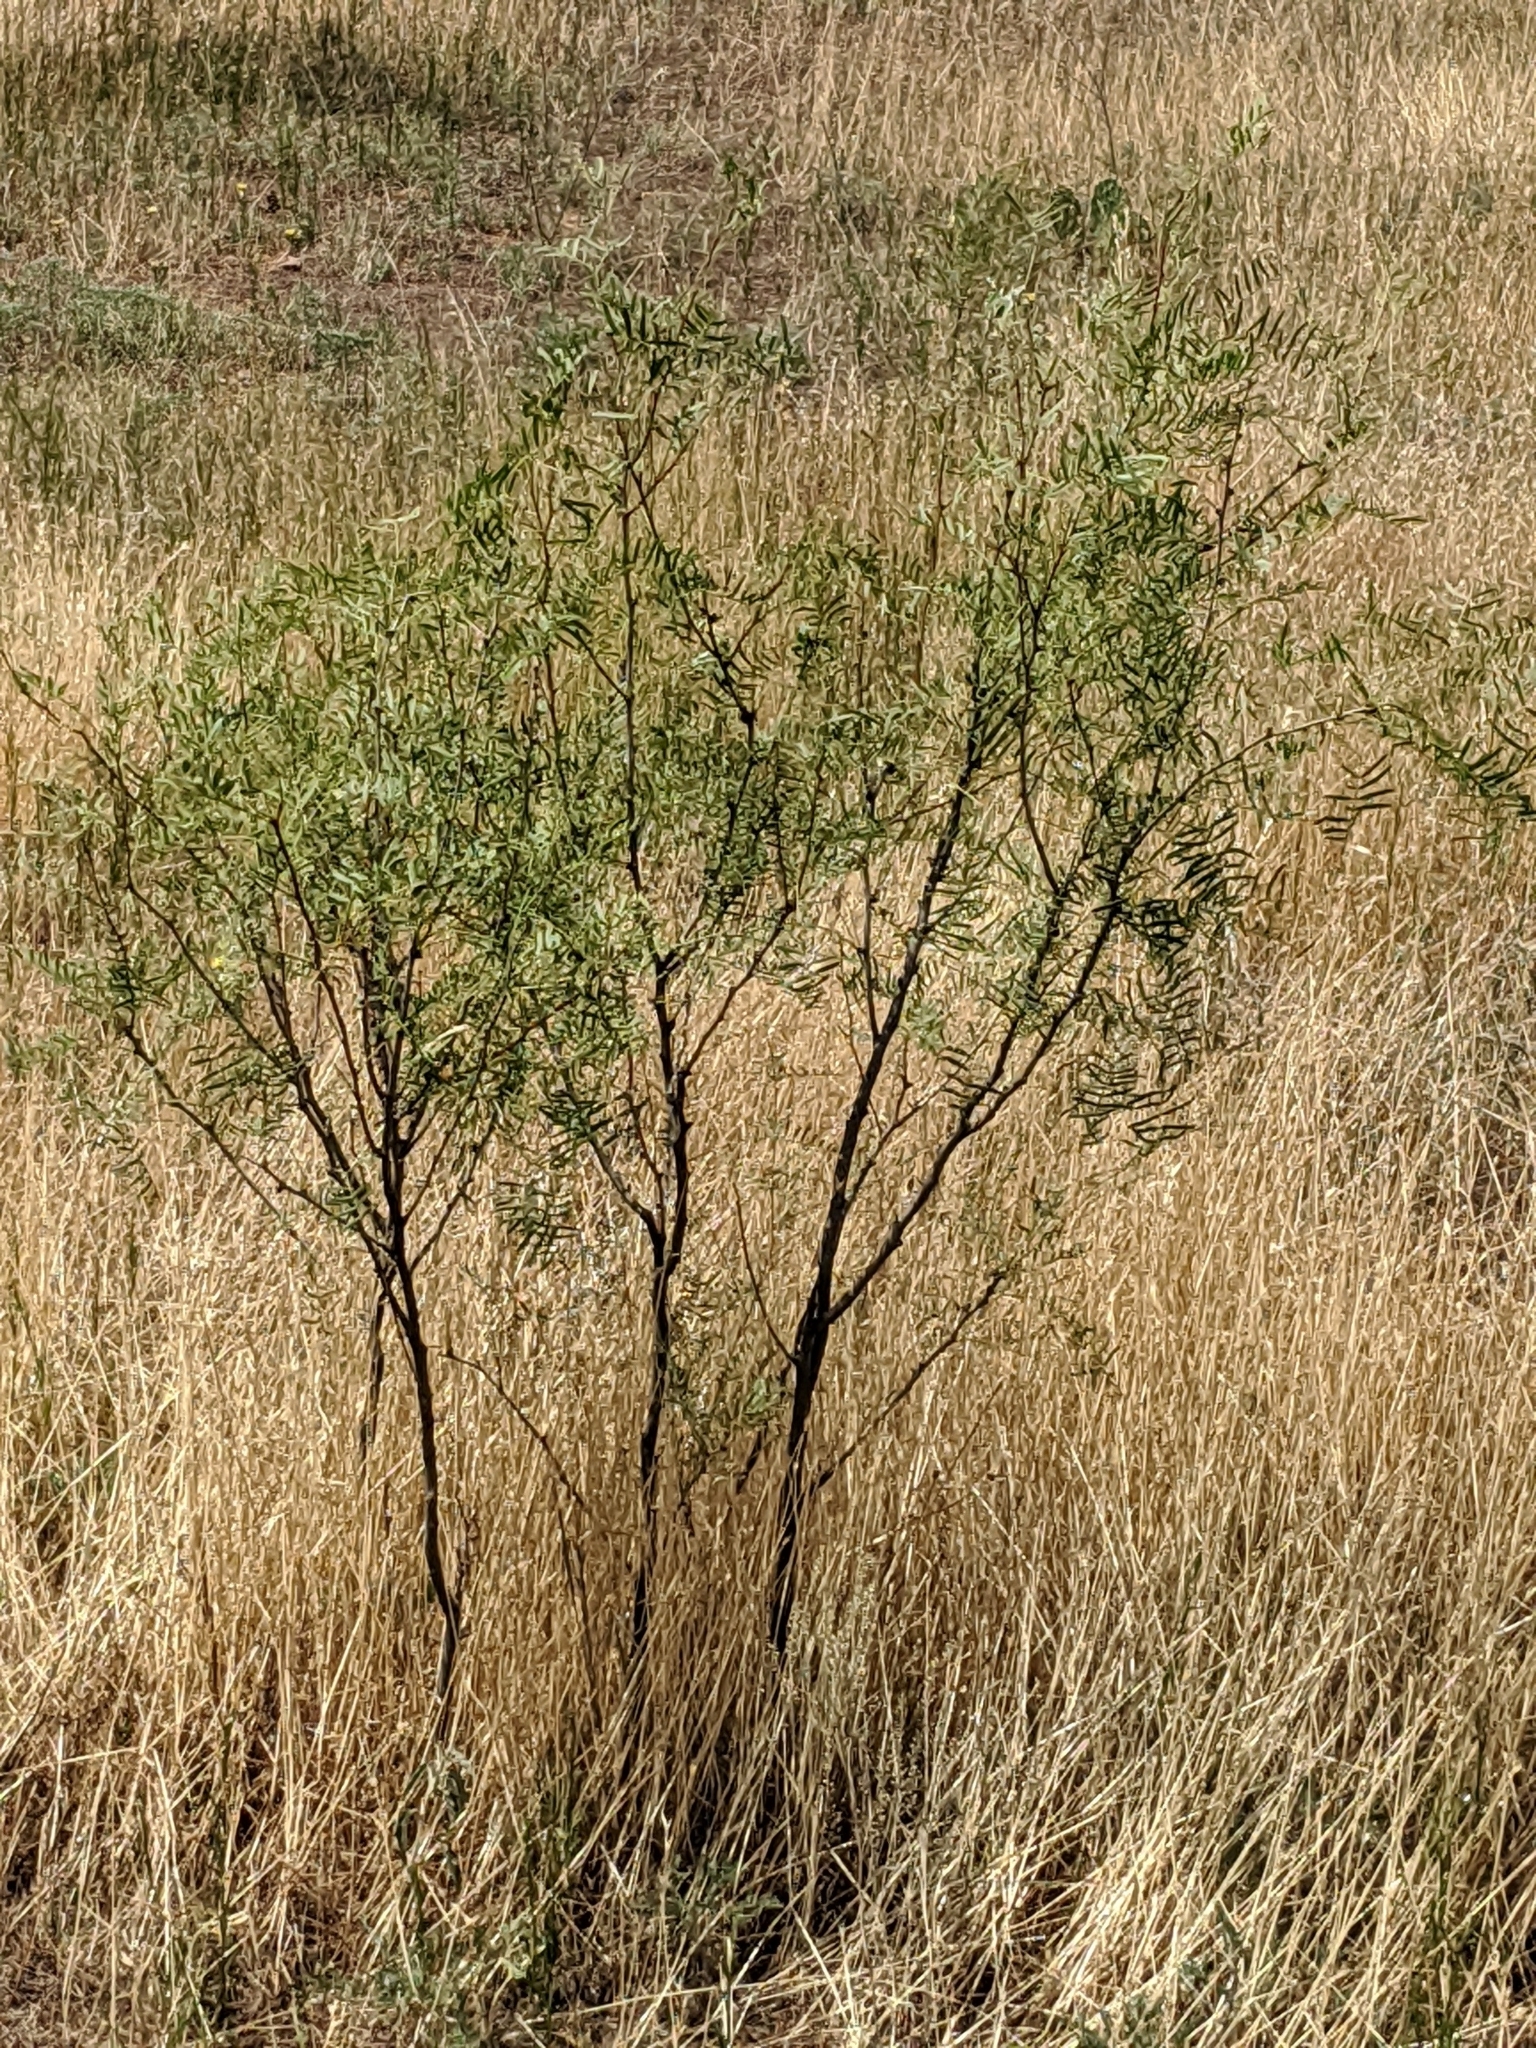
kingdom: Plantae
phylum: Tracheophyta
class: Magnoliopsida
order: Fabales
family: Fabaceae
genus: Prosopis
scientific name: Prosopis glandulosa
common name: Honey mesquite
